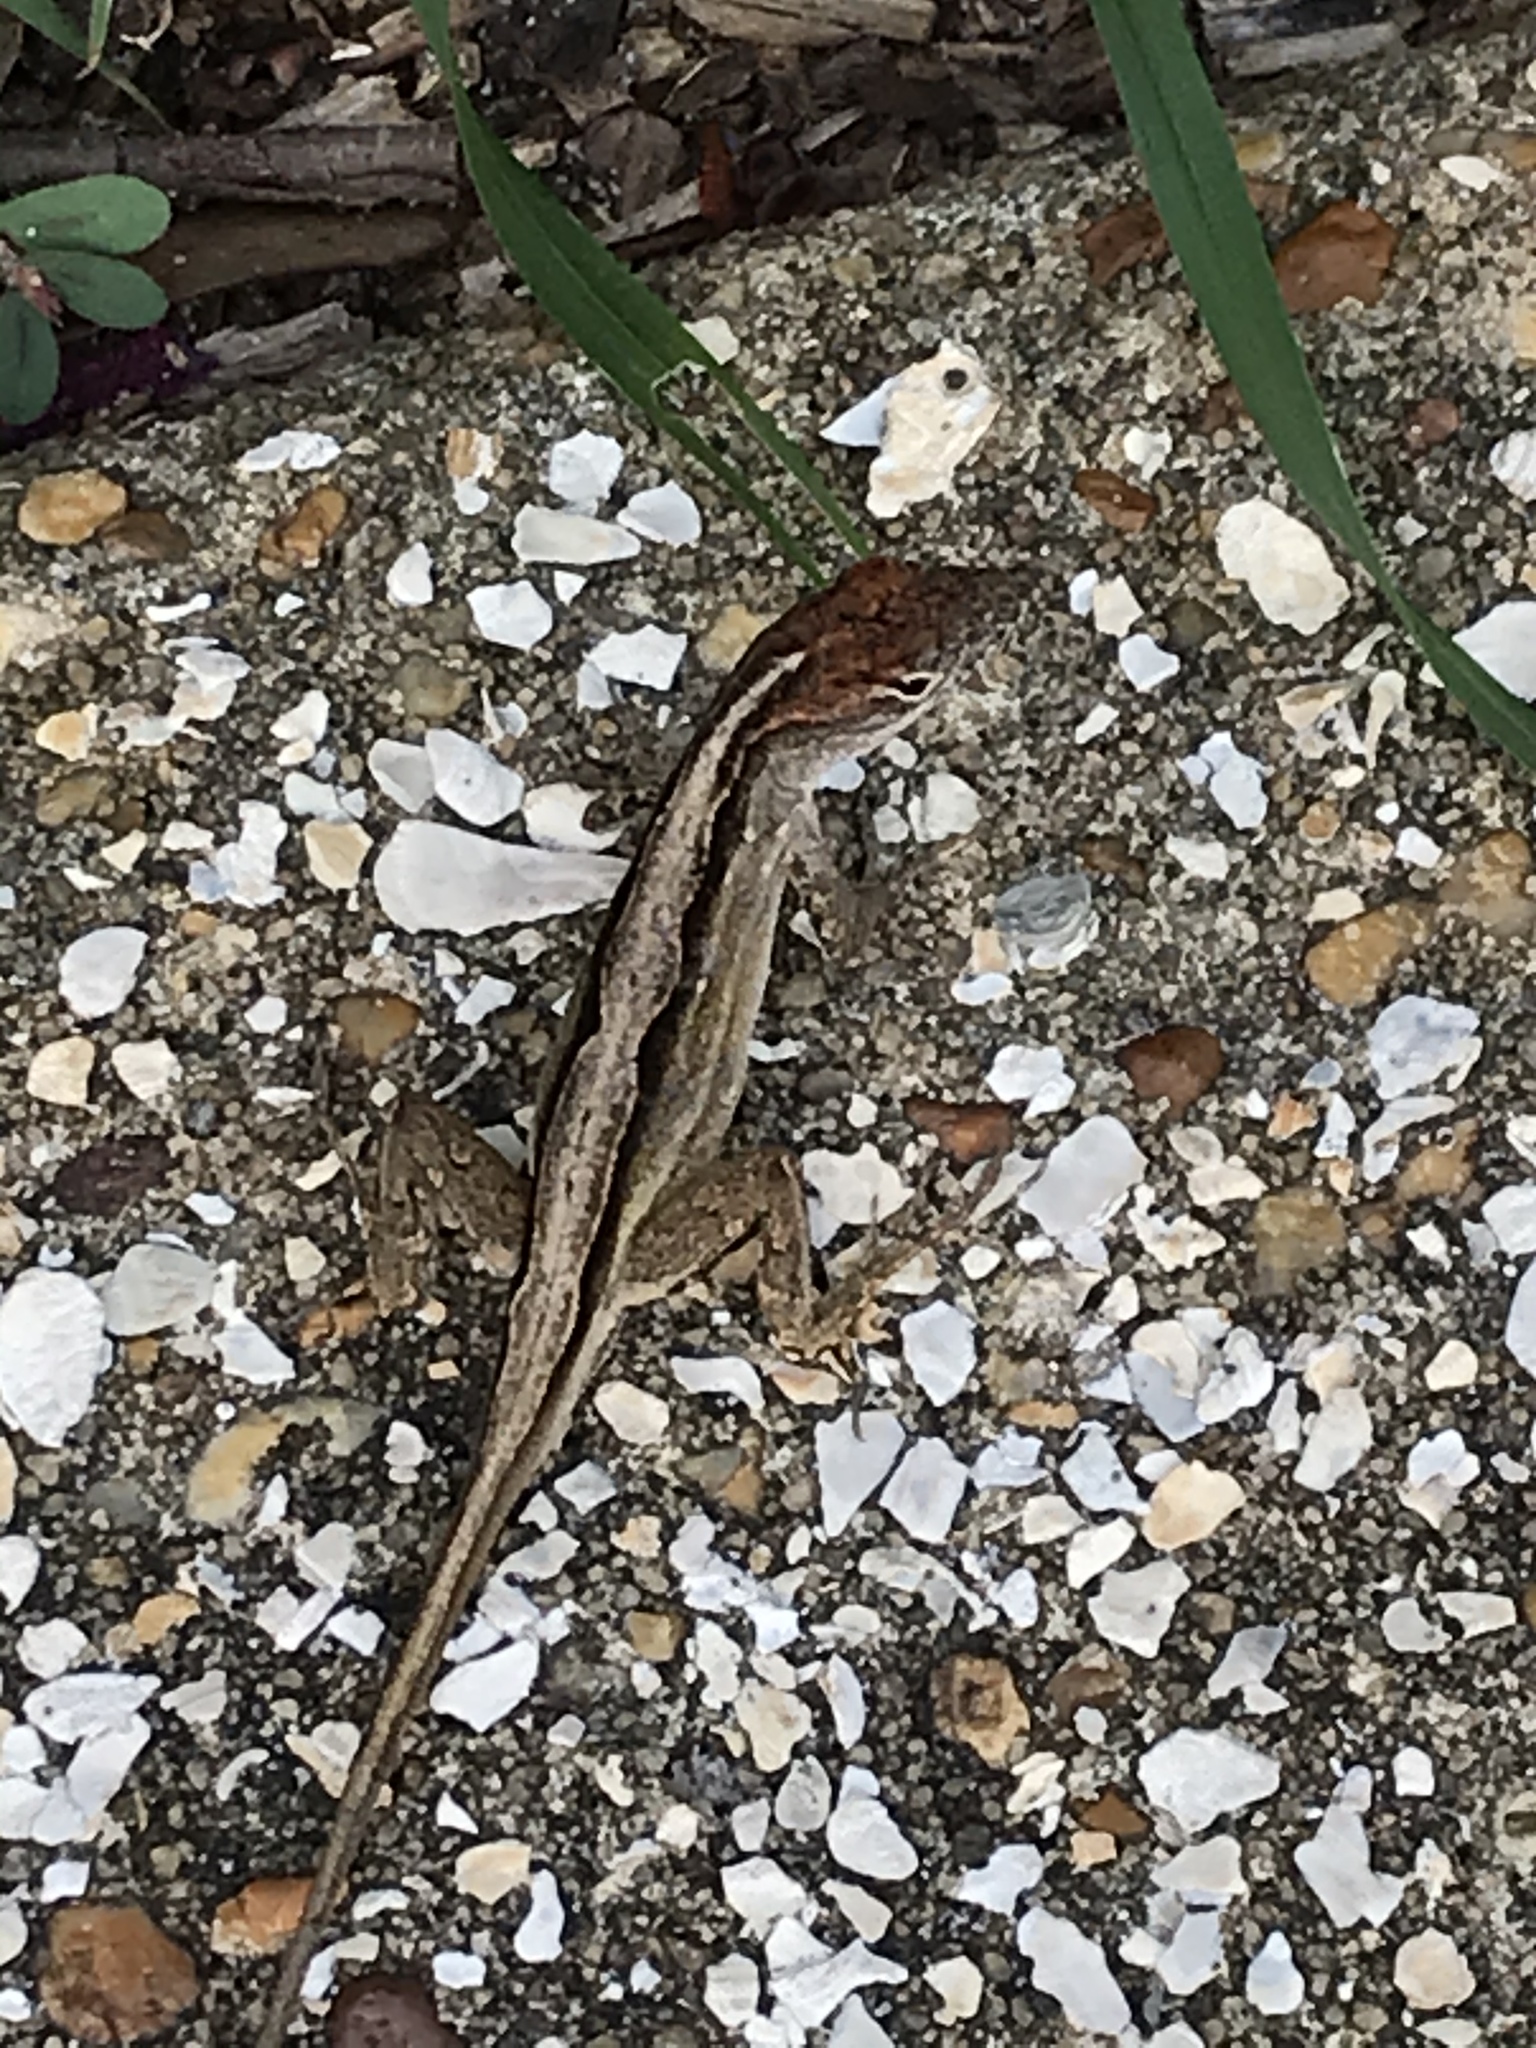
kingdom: Animalia
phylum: Chordata
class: Squamata
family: Dactyloidae
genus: Anolis
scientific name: Anolis sagrei
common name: Brown anole
